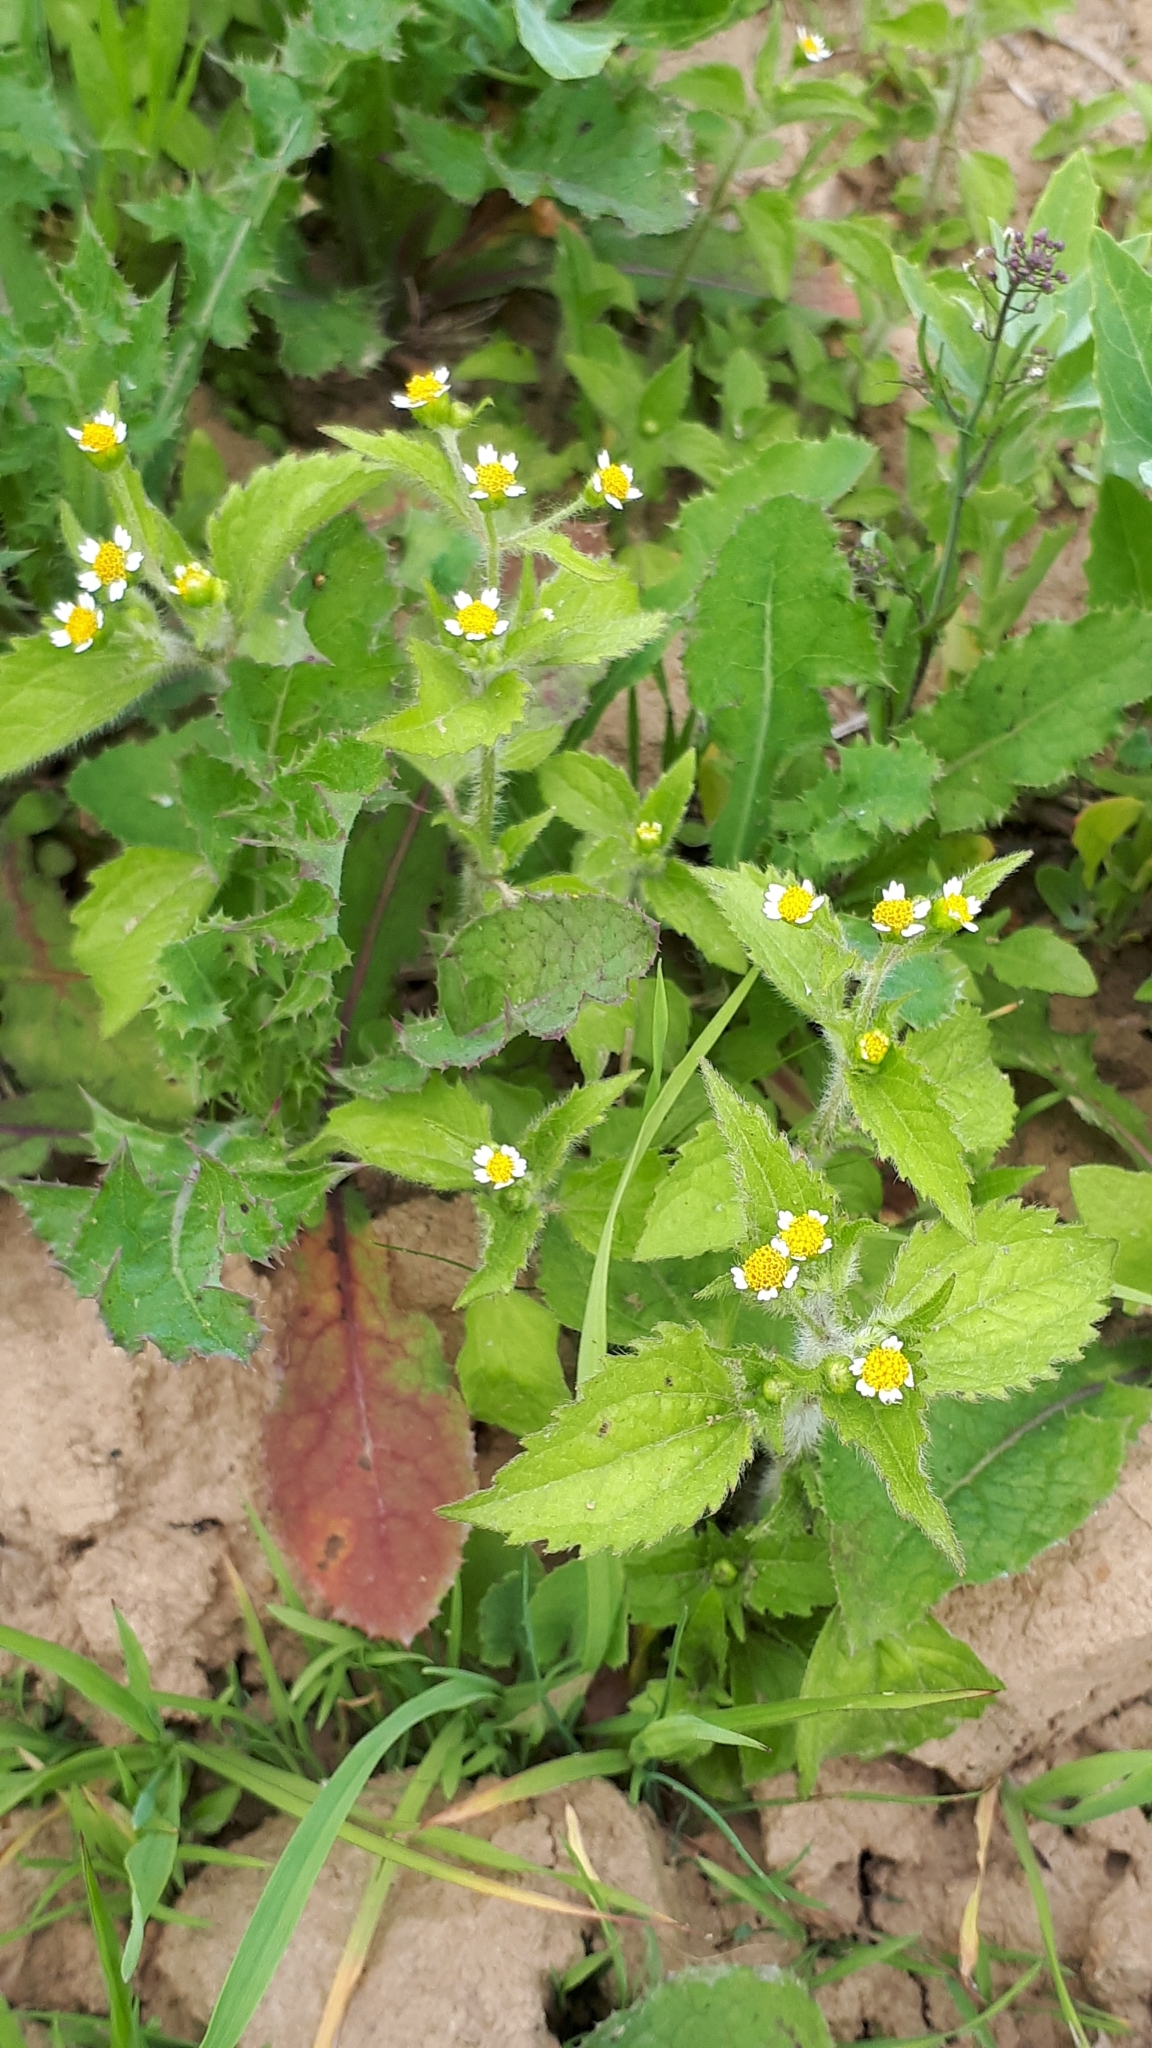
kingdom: Plantae
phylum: Tracheophyta
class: Magnoliopsida
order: Asterales
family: Asteraceae
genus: Galinsoga
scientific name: Galinsoga quadriradiata
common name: Shaggy soldier
